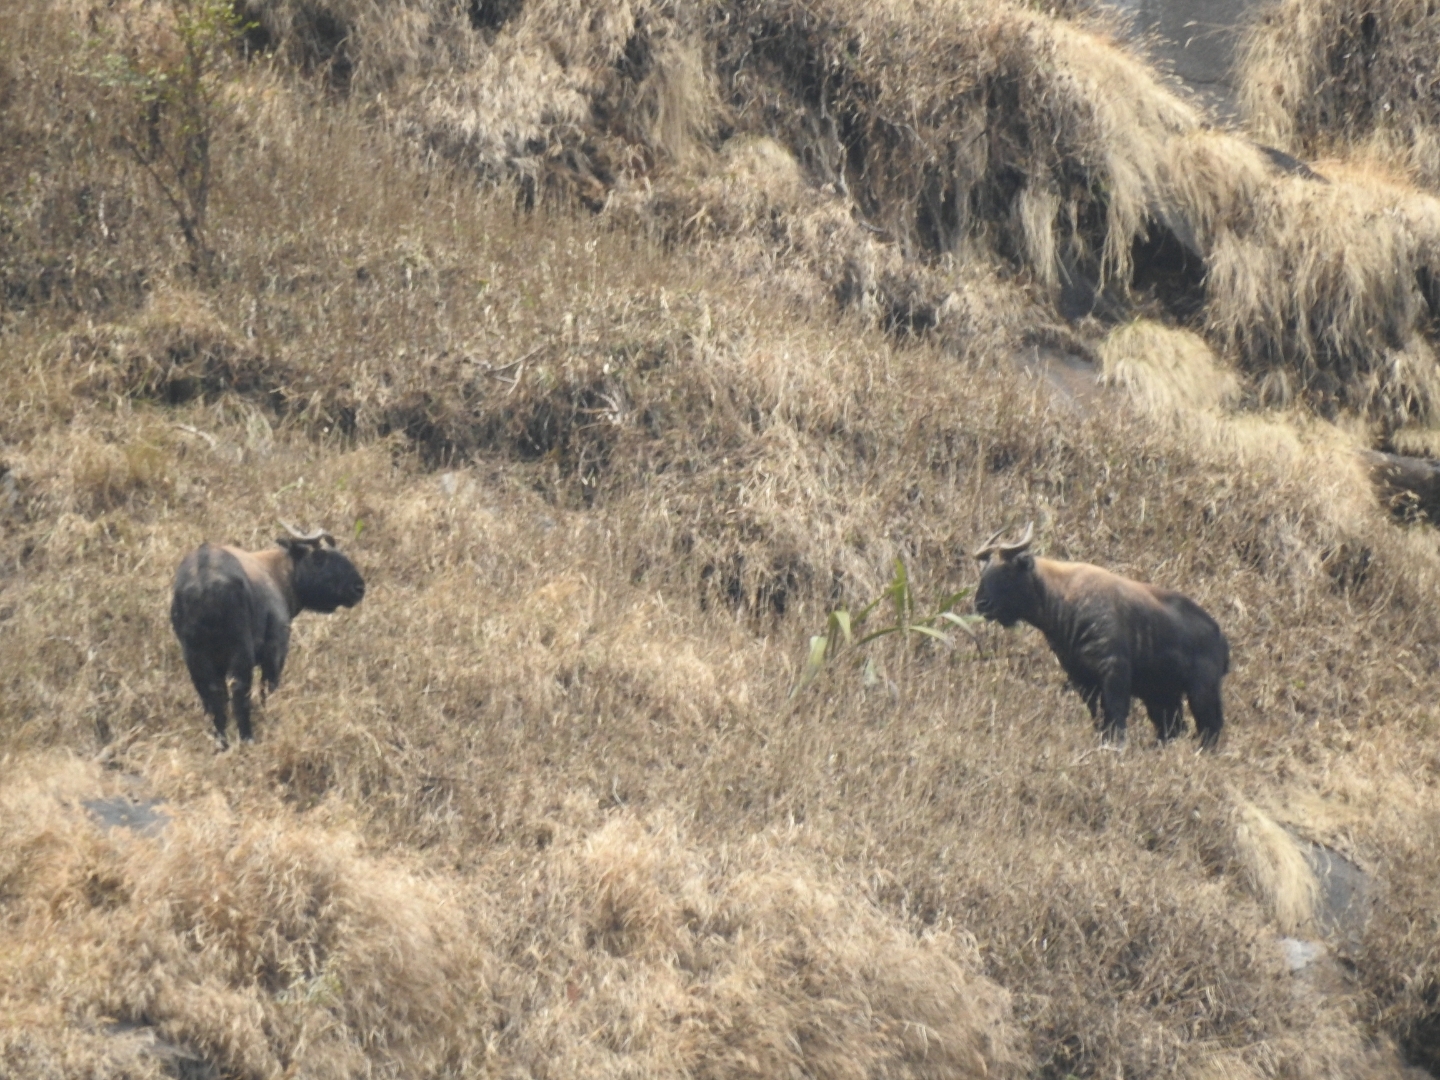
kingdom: Animalia
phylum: Chordata
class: Mammalia
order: Artiodactyla
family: Bovidae
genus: Budorcas
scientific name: Budorcas taxicolor
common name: Takin
